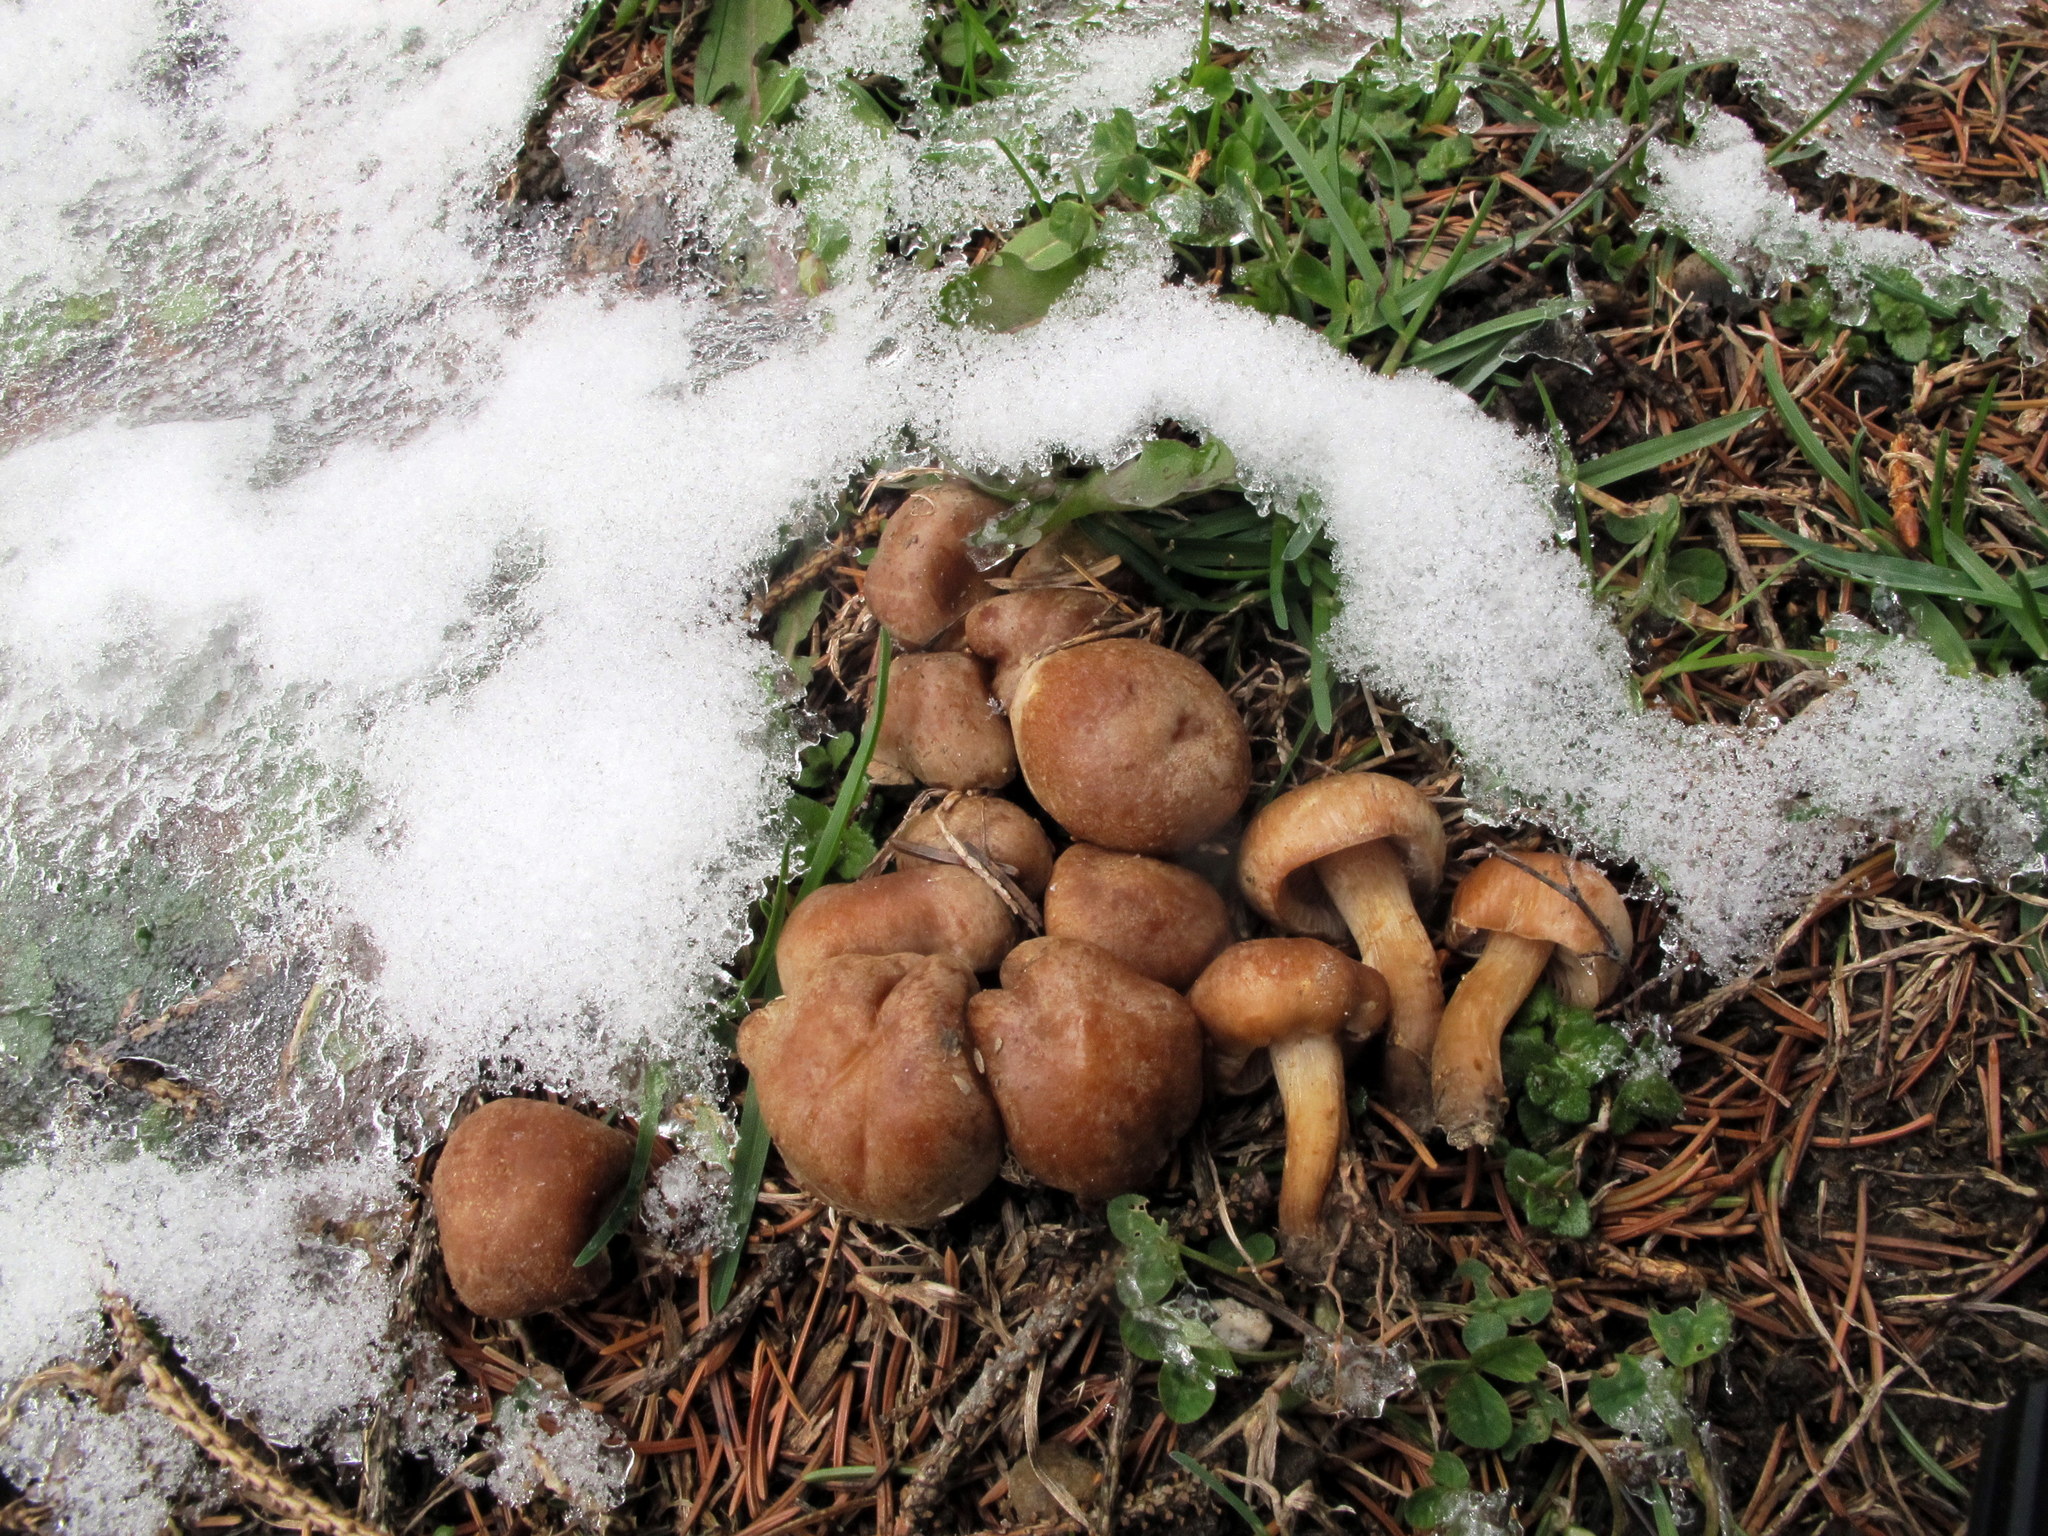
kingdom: Fungi
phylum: Basidiomycota
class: Agaricomycetes
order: Agaricales
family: Hymenogastraceae
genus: Hebeloma
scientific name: Hebeloma excedens
